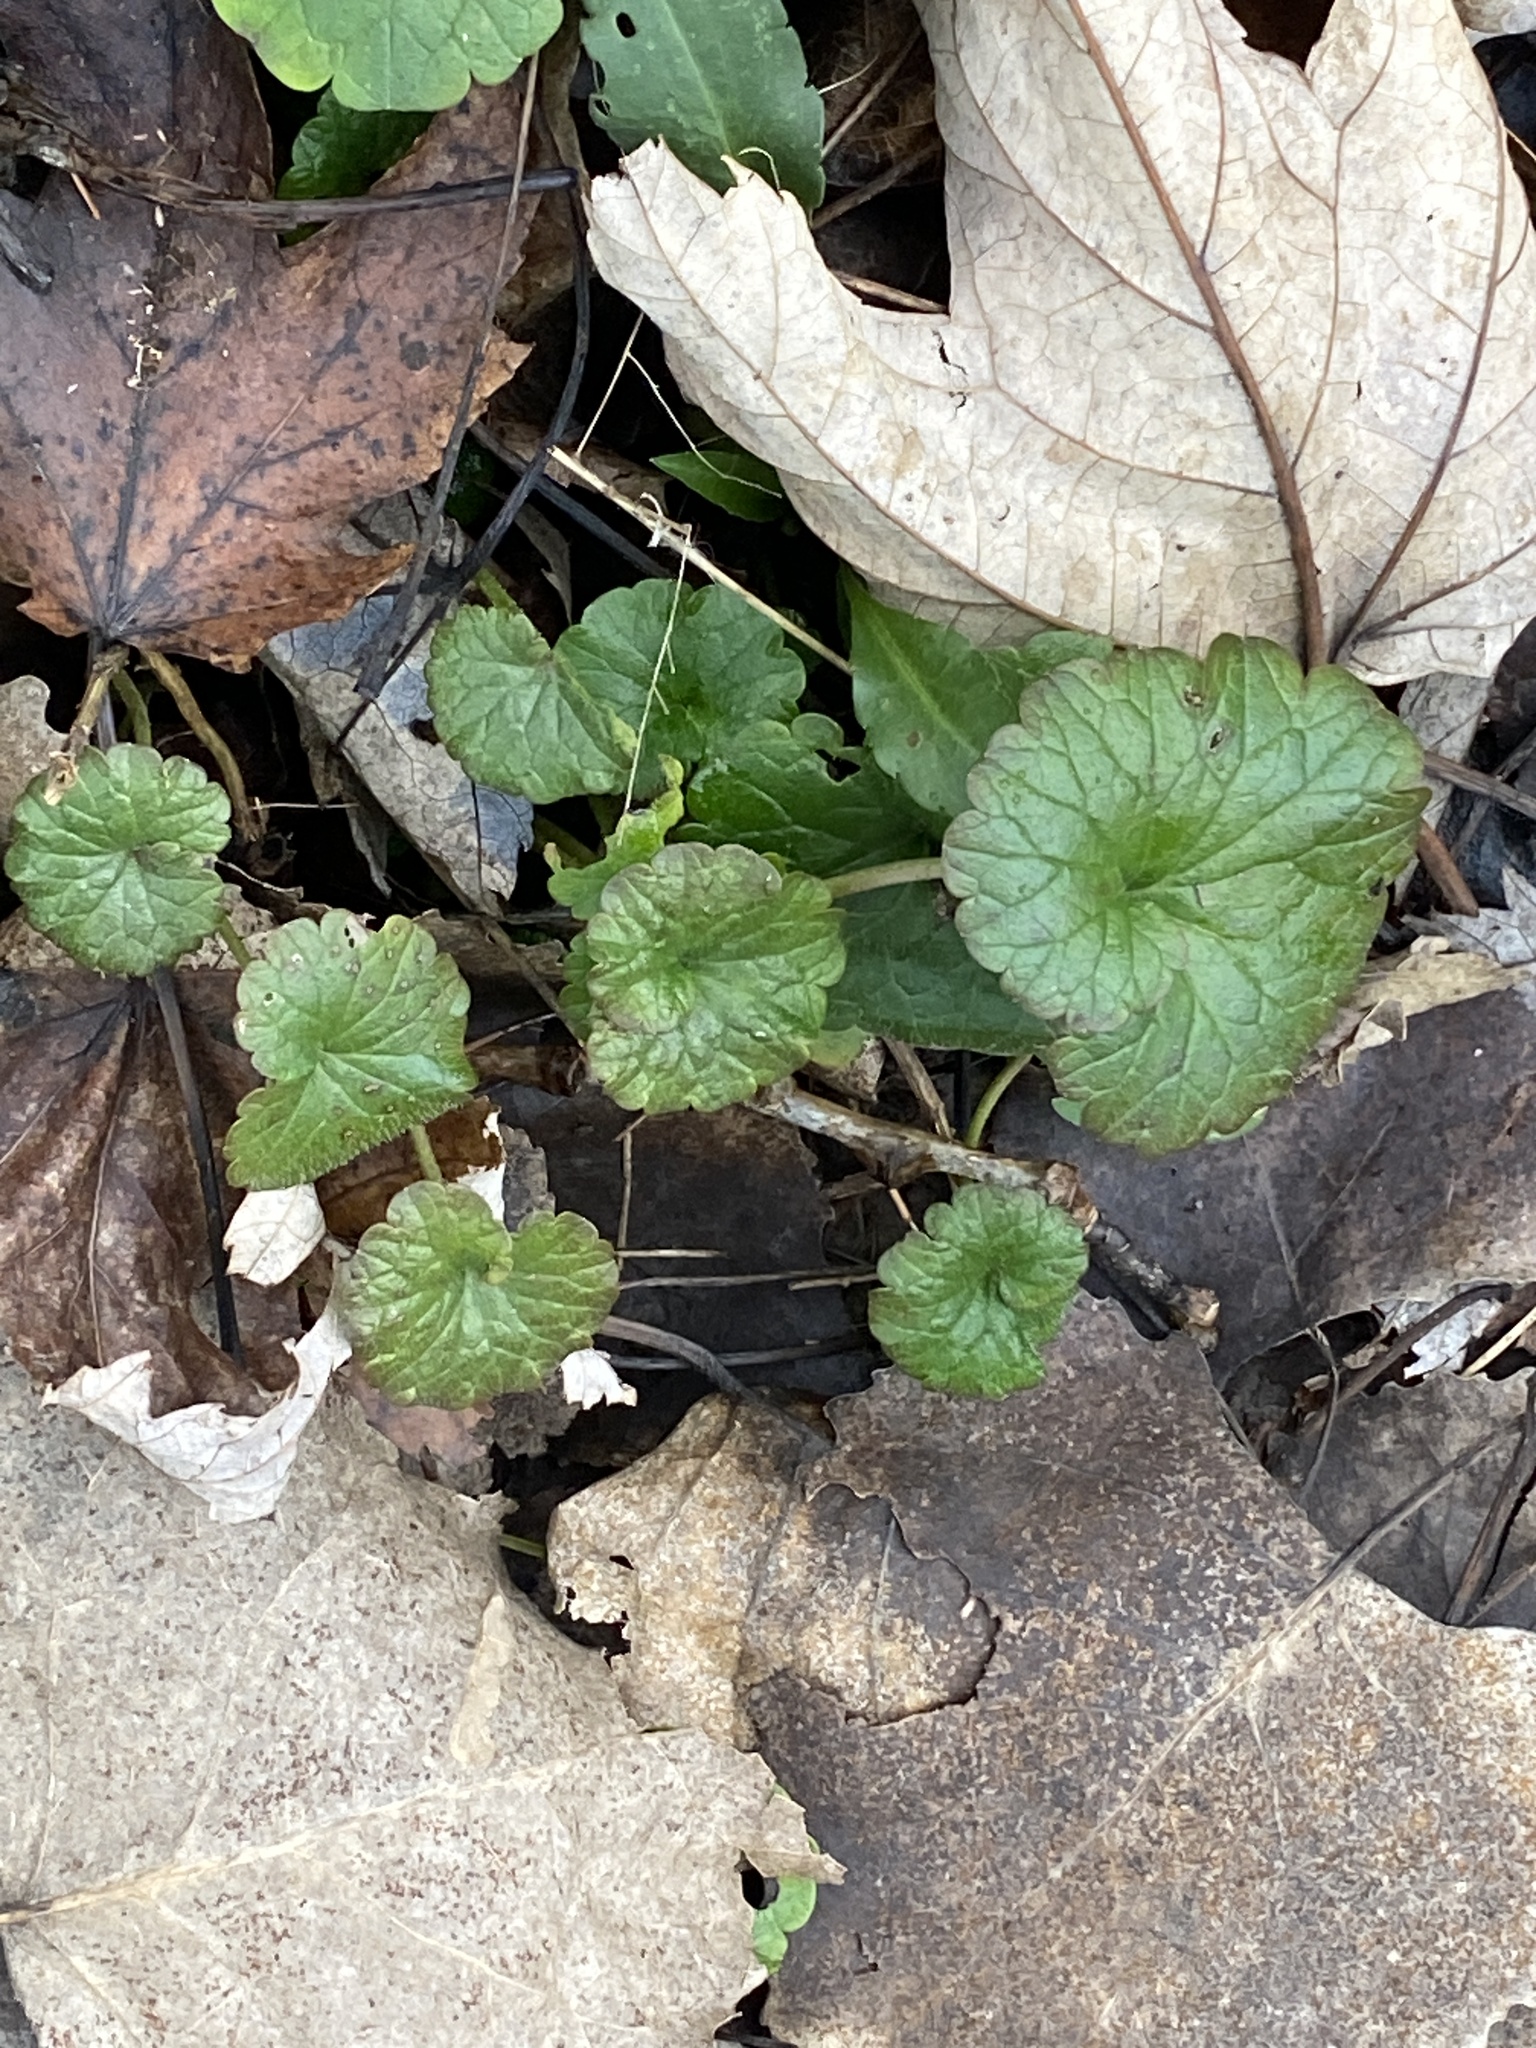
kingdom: Plantae
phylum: Tracheophyta
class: Magnoliopsida
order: Lamiales
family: Lamiaceae
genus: Glechoma
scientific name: Glechoma hederacea
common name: Ground ivy
